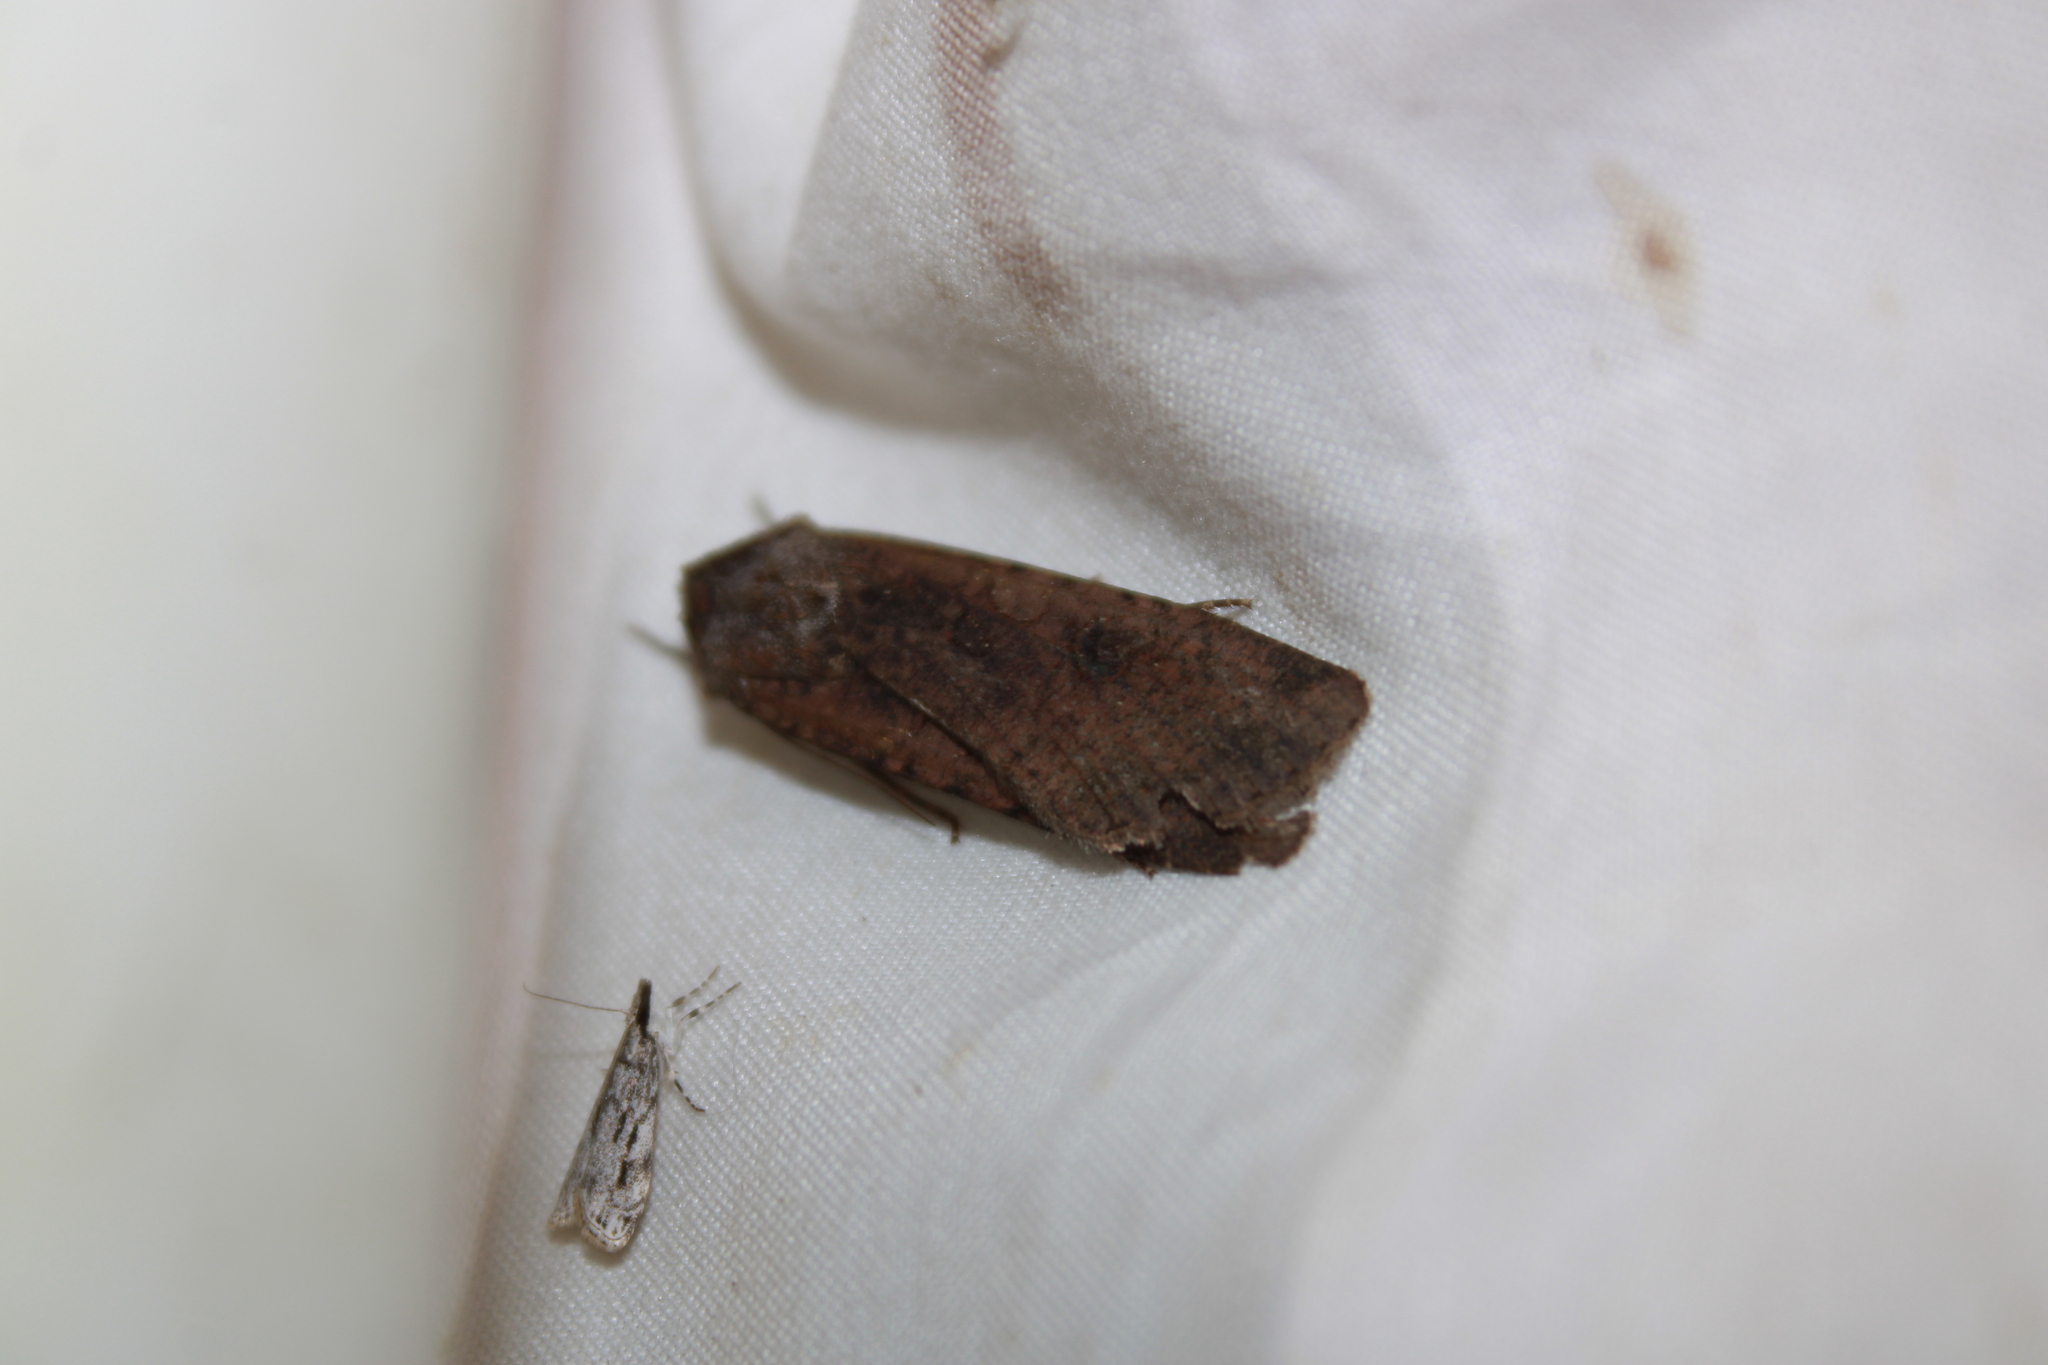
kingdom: Animalia
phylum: Arthropoda
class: Insecta
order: Lepidoptera
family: Noctuidae
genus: Peridroma
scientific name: Peridroma saucia
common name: Pearly underwing
